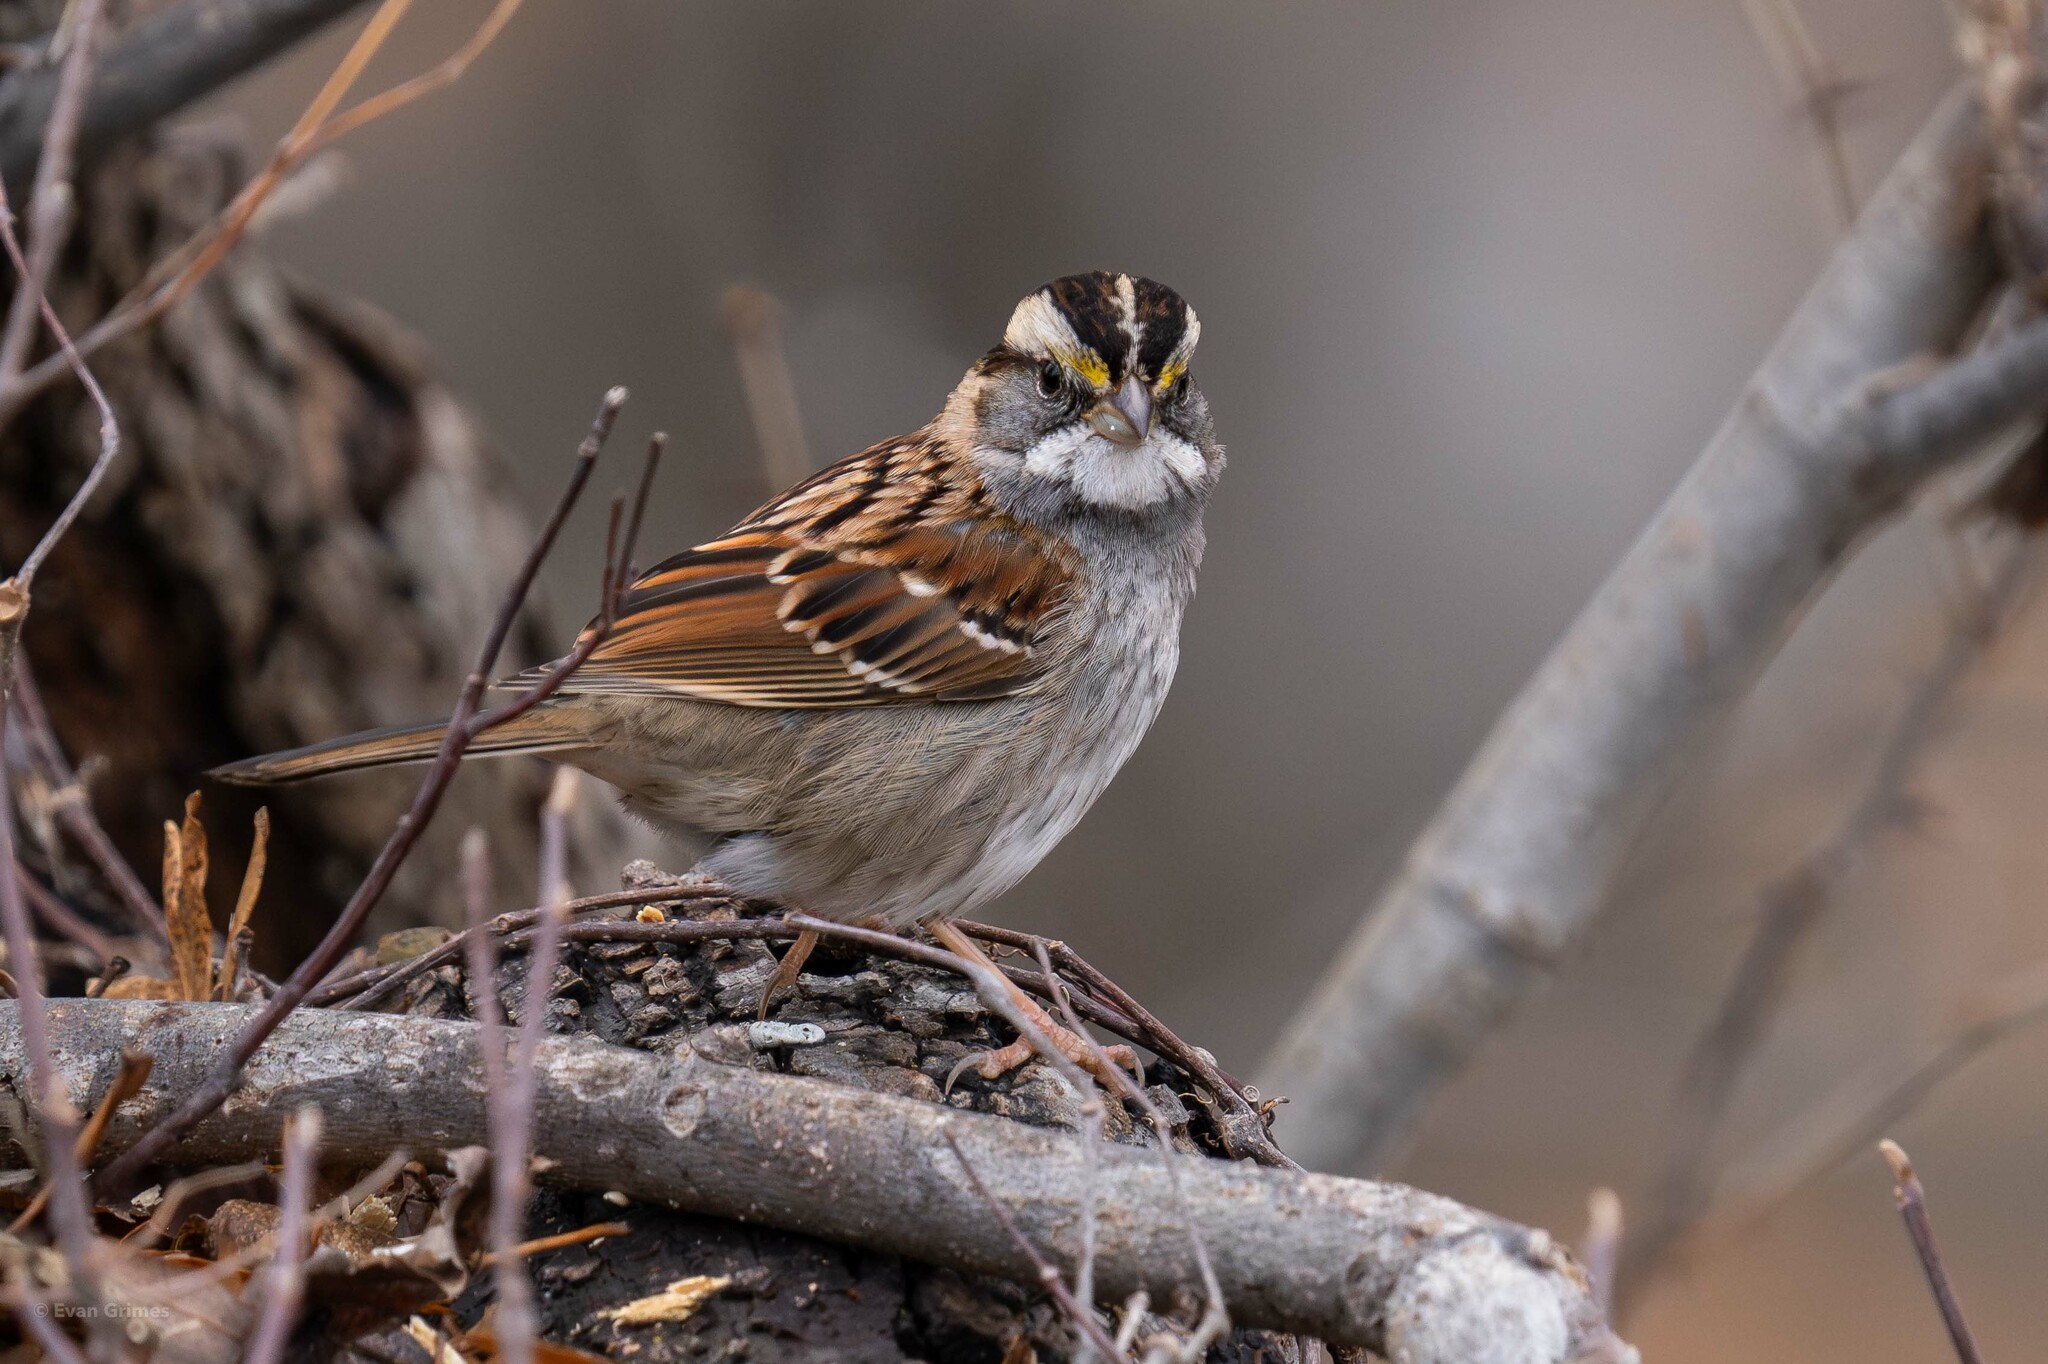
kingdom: Animalia
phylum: Chordata
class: Aves
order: Passeriformes
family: Passerellidae
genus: Zonotrichia
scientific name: Zonotrichia albicollis
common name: White-throated sparrow
